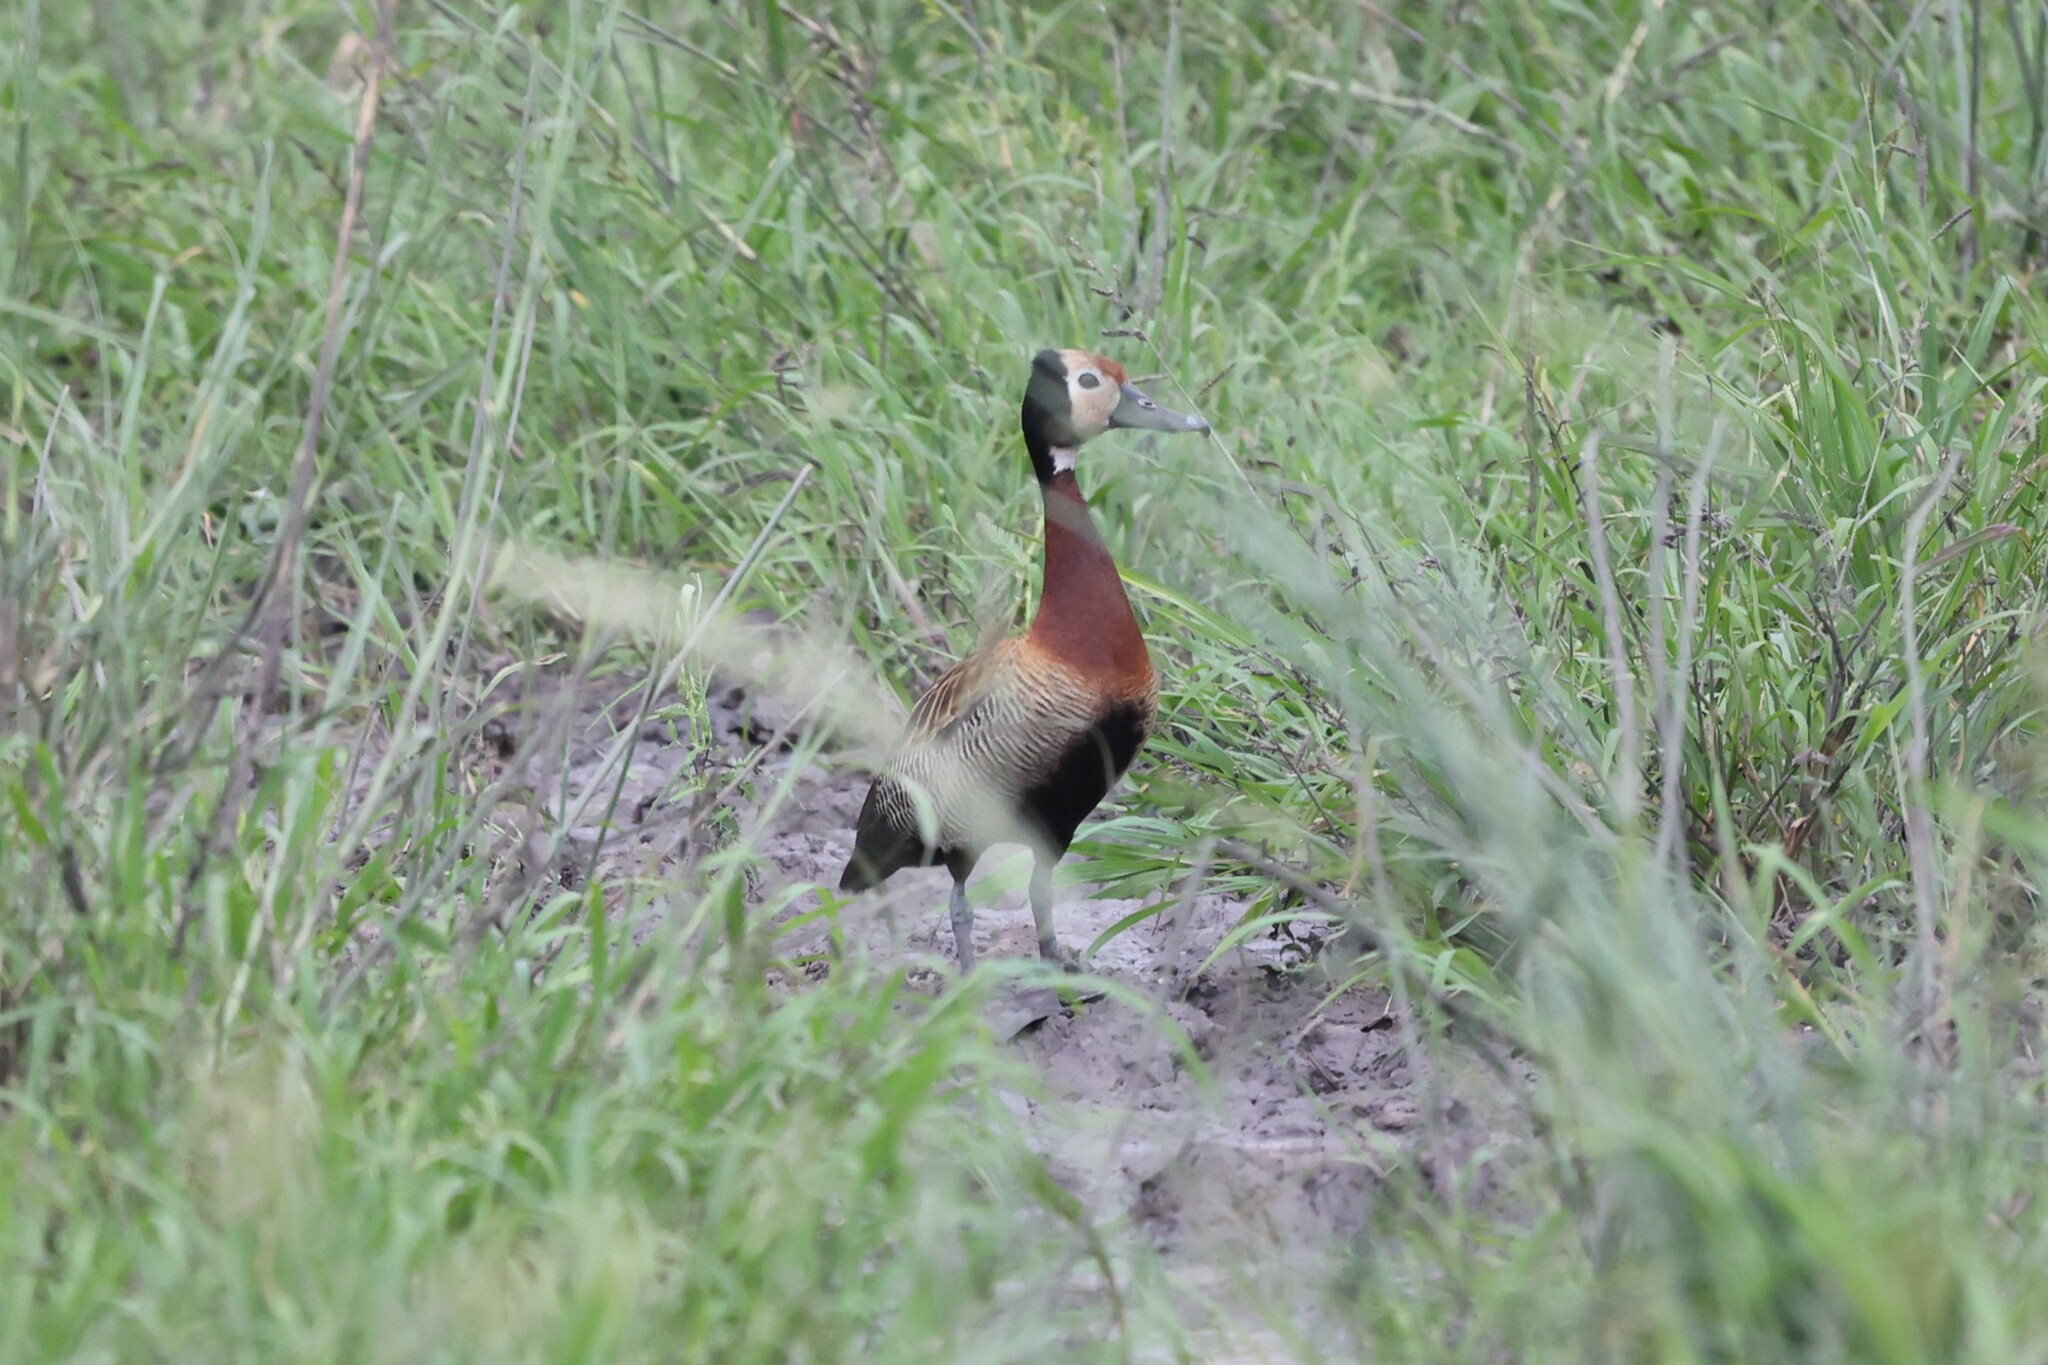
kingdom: Animalia
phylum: Chordata
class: Aves
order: Anseriformes
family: Anatidae
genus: Dendrocygna
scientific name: Dendrocygna viduata
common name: White-faced whistling duck
